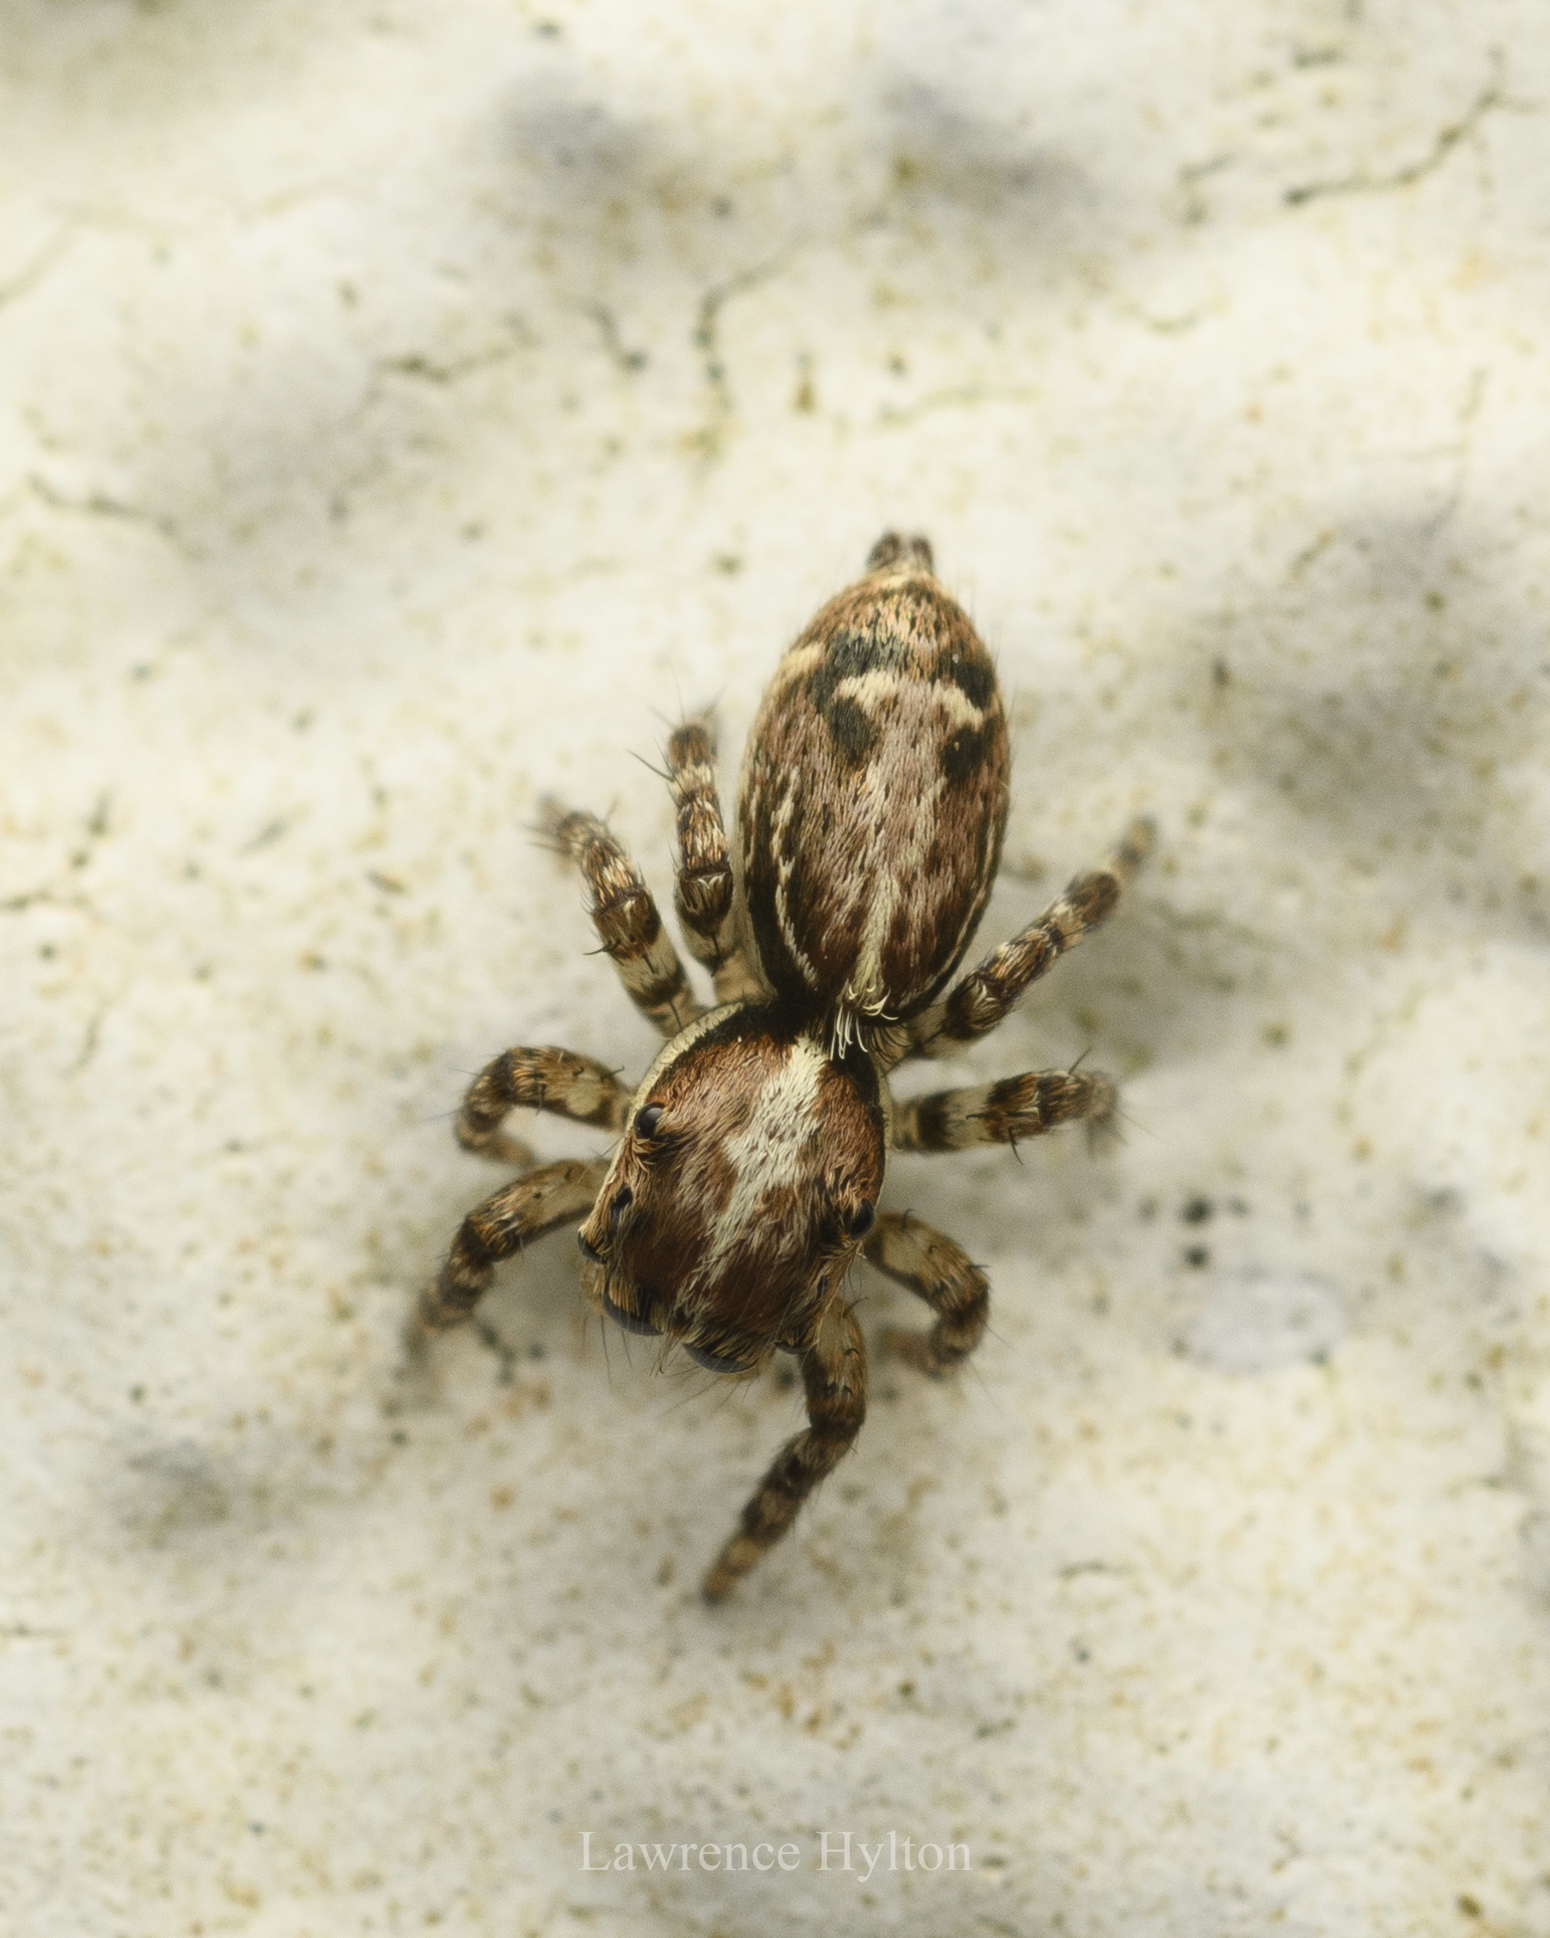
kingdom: Animalia
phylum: Arthropoda
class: Arachnida
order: Araneae
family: Salticidae
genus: Thyene
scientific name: Thyene orientalis
